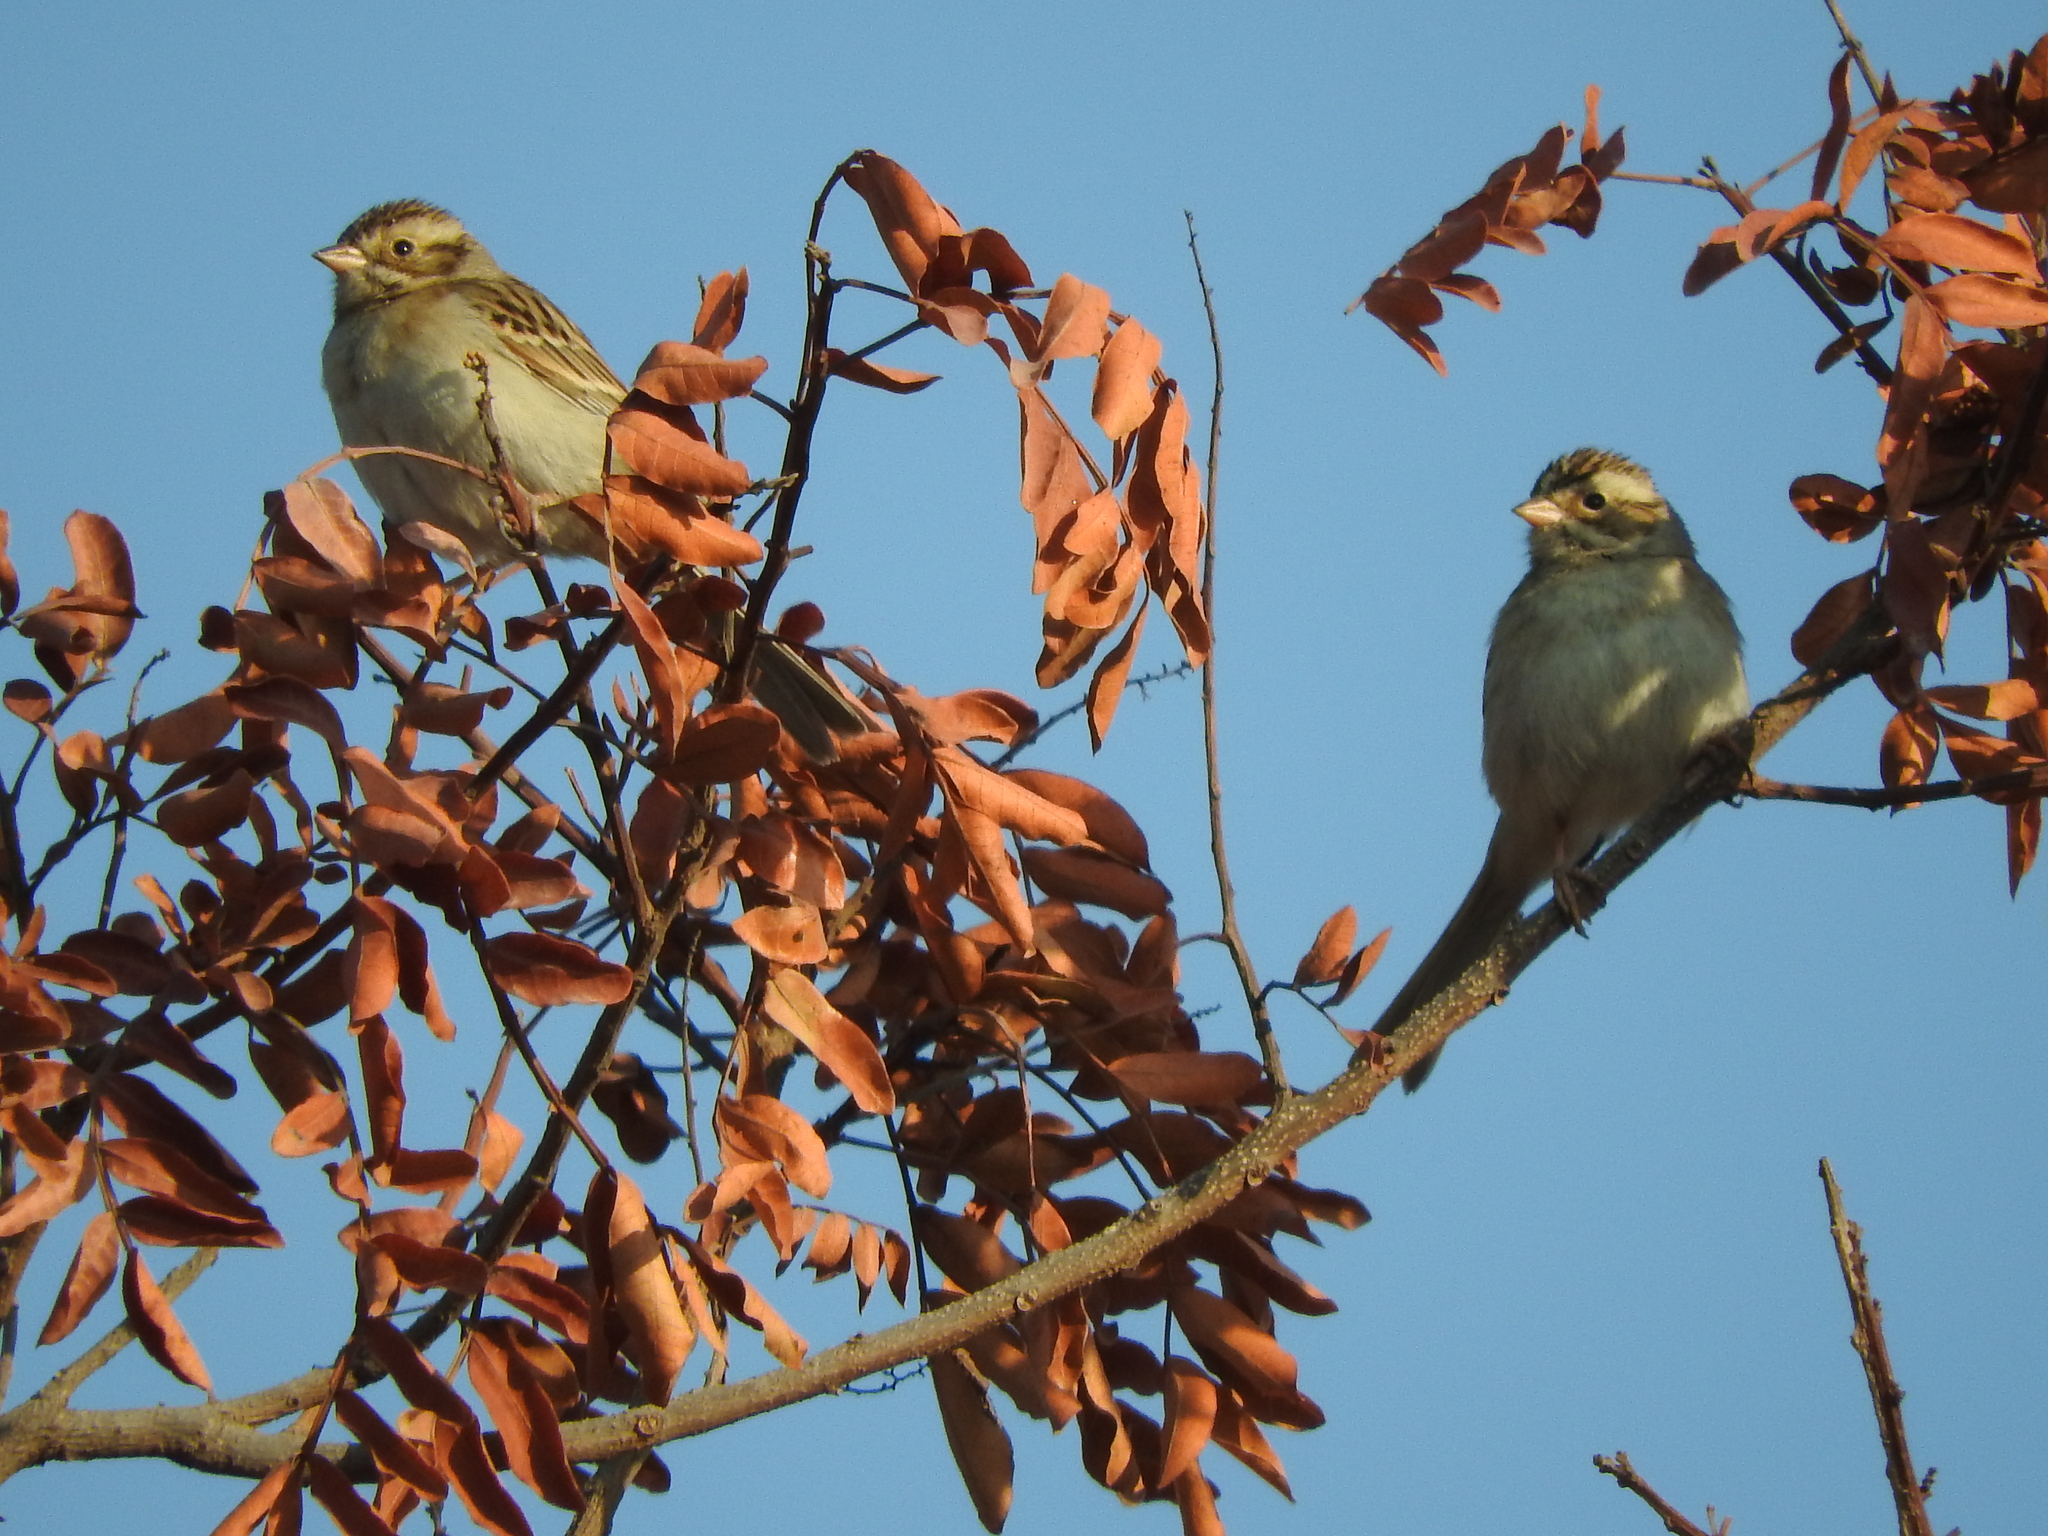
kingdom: Animalia
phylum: Chordata
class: Aves
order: Passeriformes
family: Passerellidae
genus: Spizella
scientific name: Spizella pallida
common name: Clay-colored sparrow
